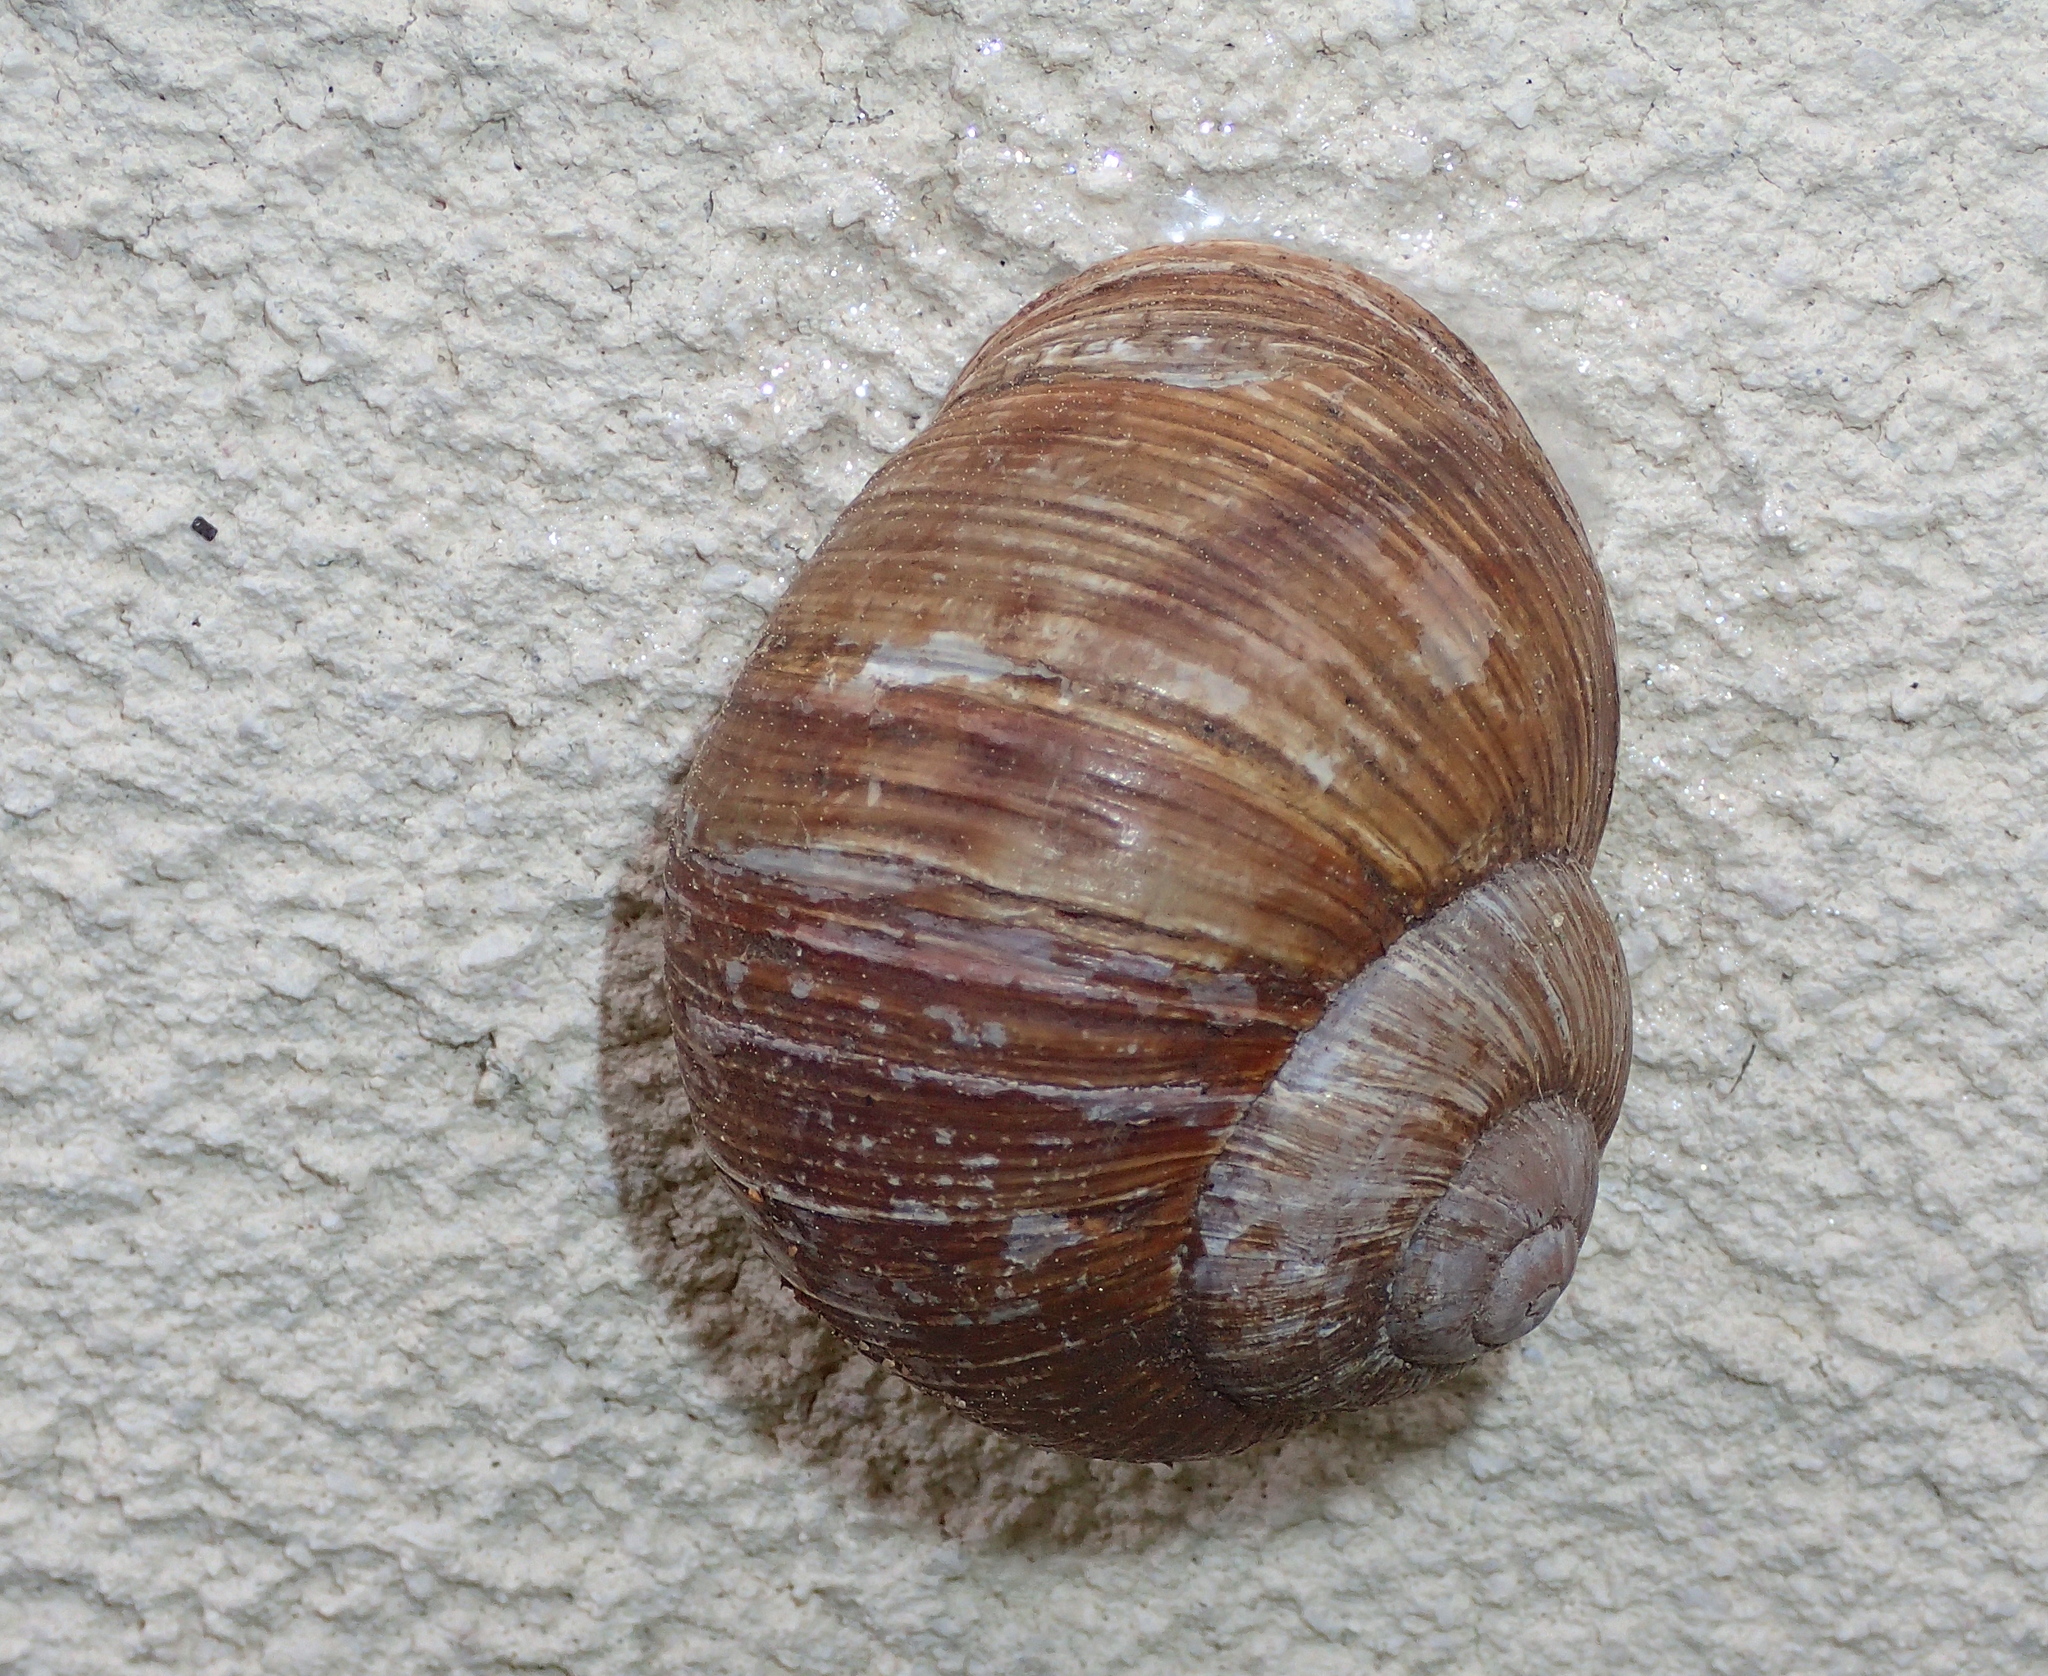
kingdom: Animalia
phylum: Mollusca
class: Gastropoda
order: Stylommatophora
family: Helicidae
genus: Helix
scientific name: Helix pomatia
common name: Roman snail
